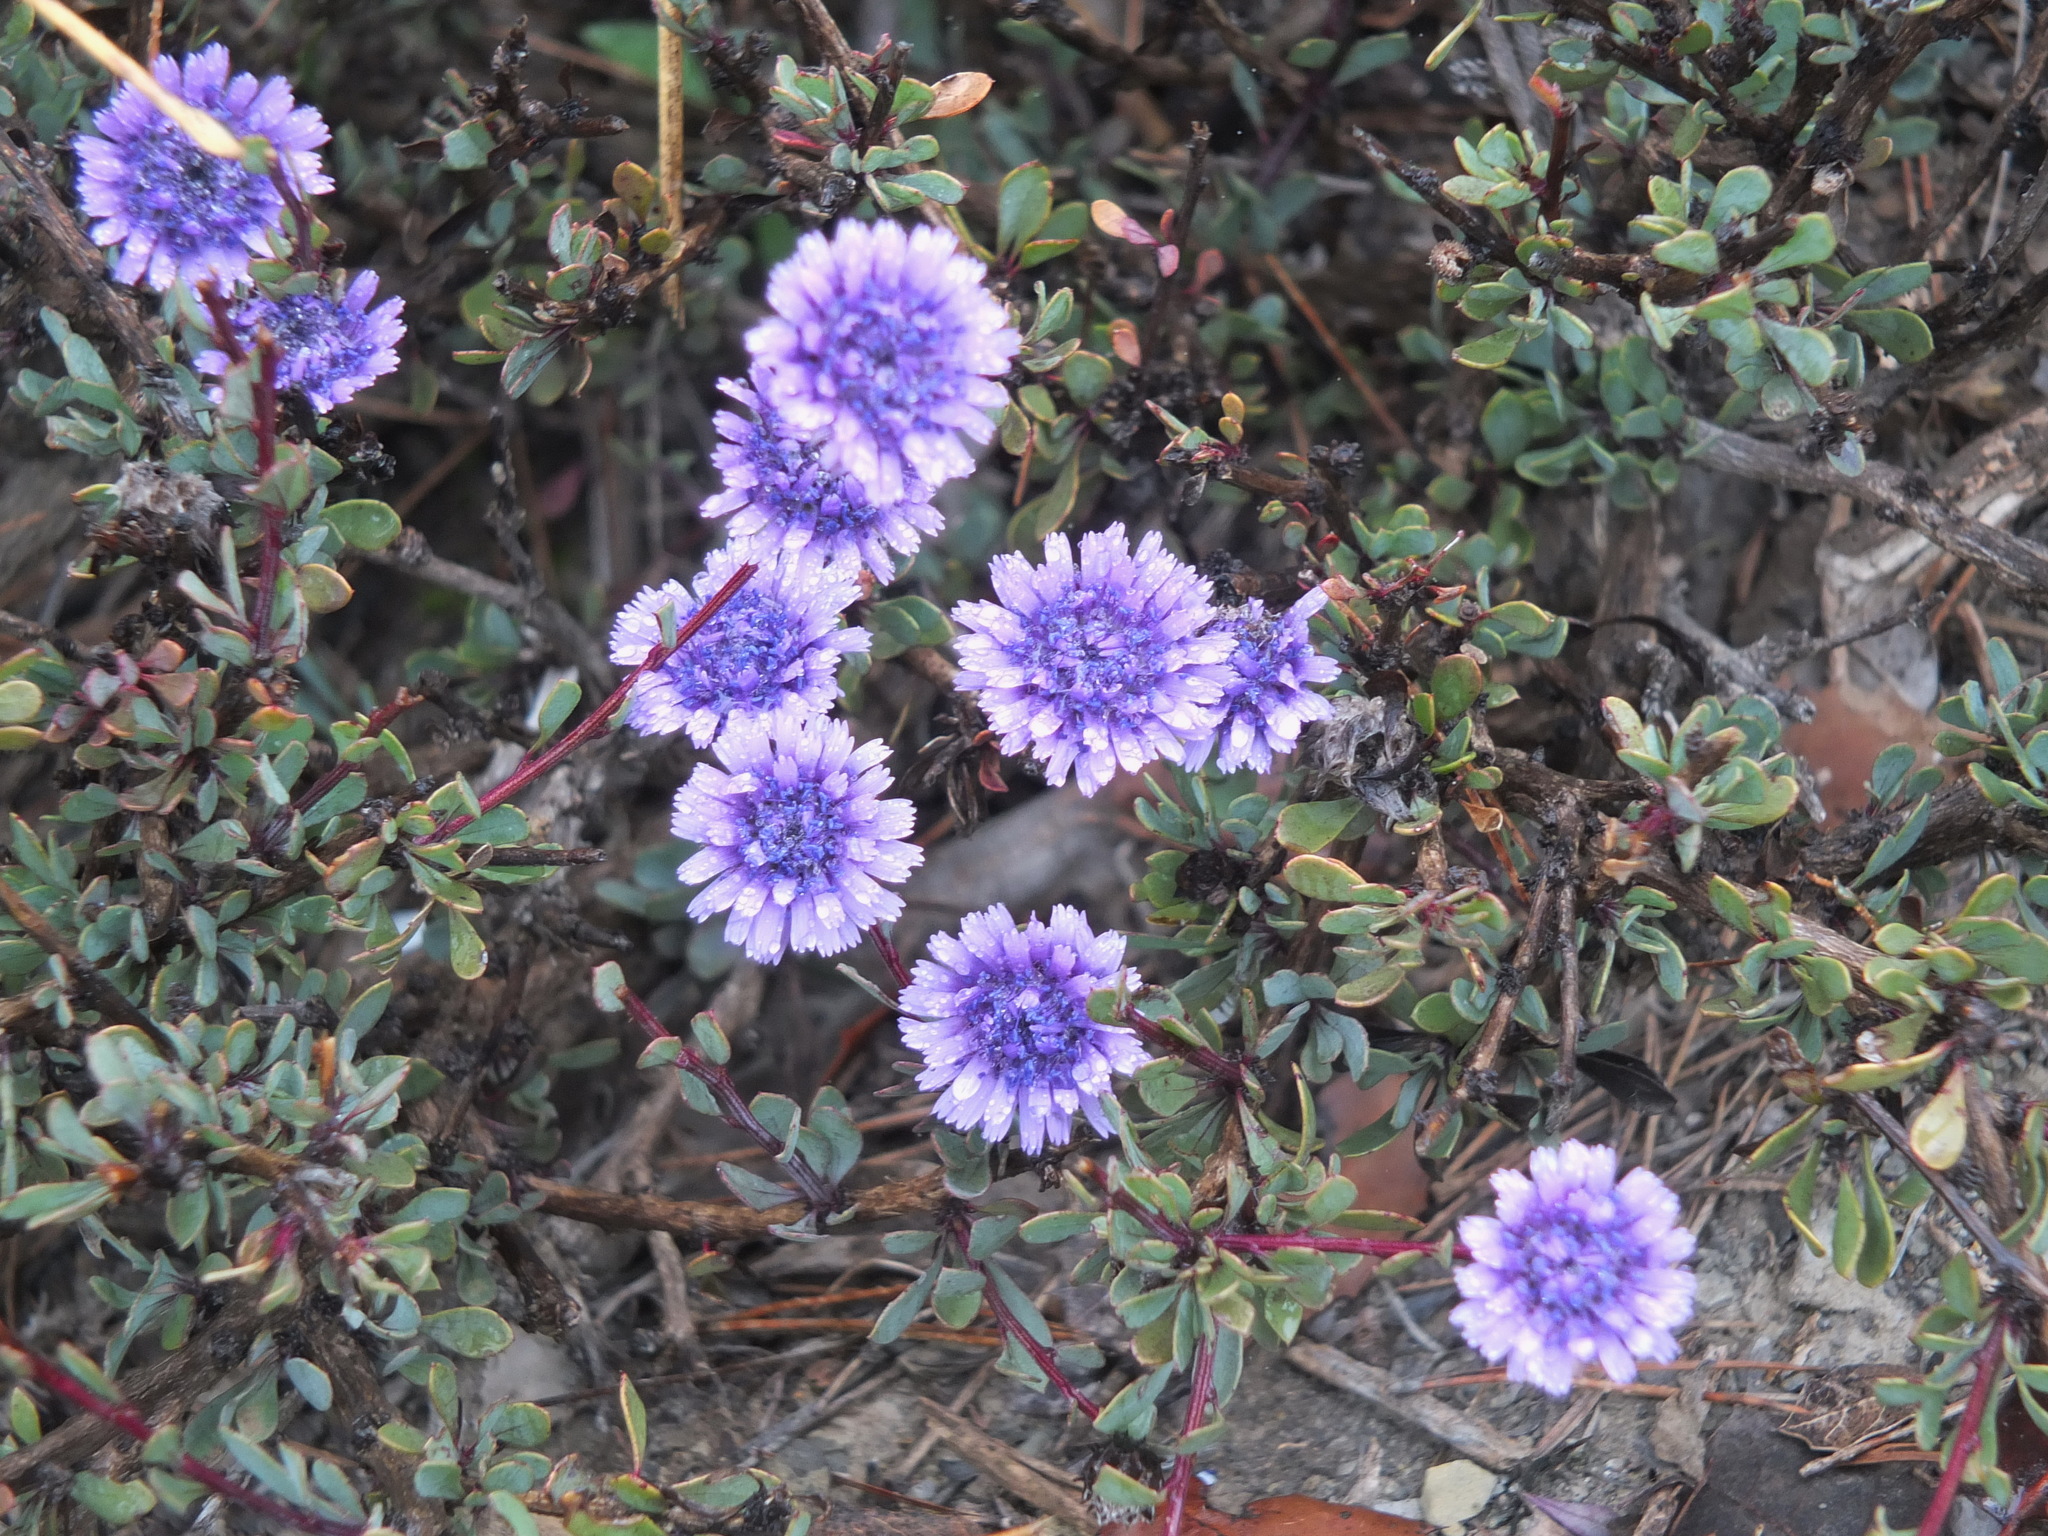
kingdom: Plantae
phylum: Tracheophyta
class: Magnoliopsida
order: Lamiales
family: Plantaginaceae
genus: Globularia
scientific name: Globularia alypum
